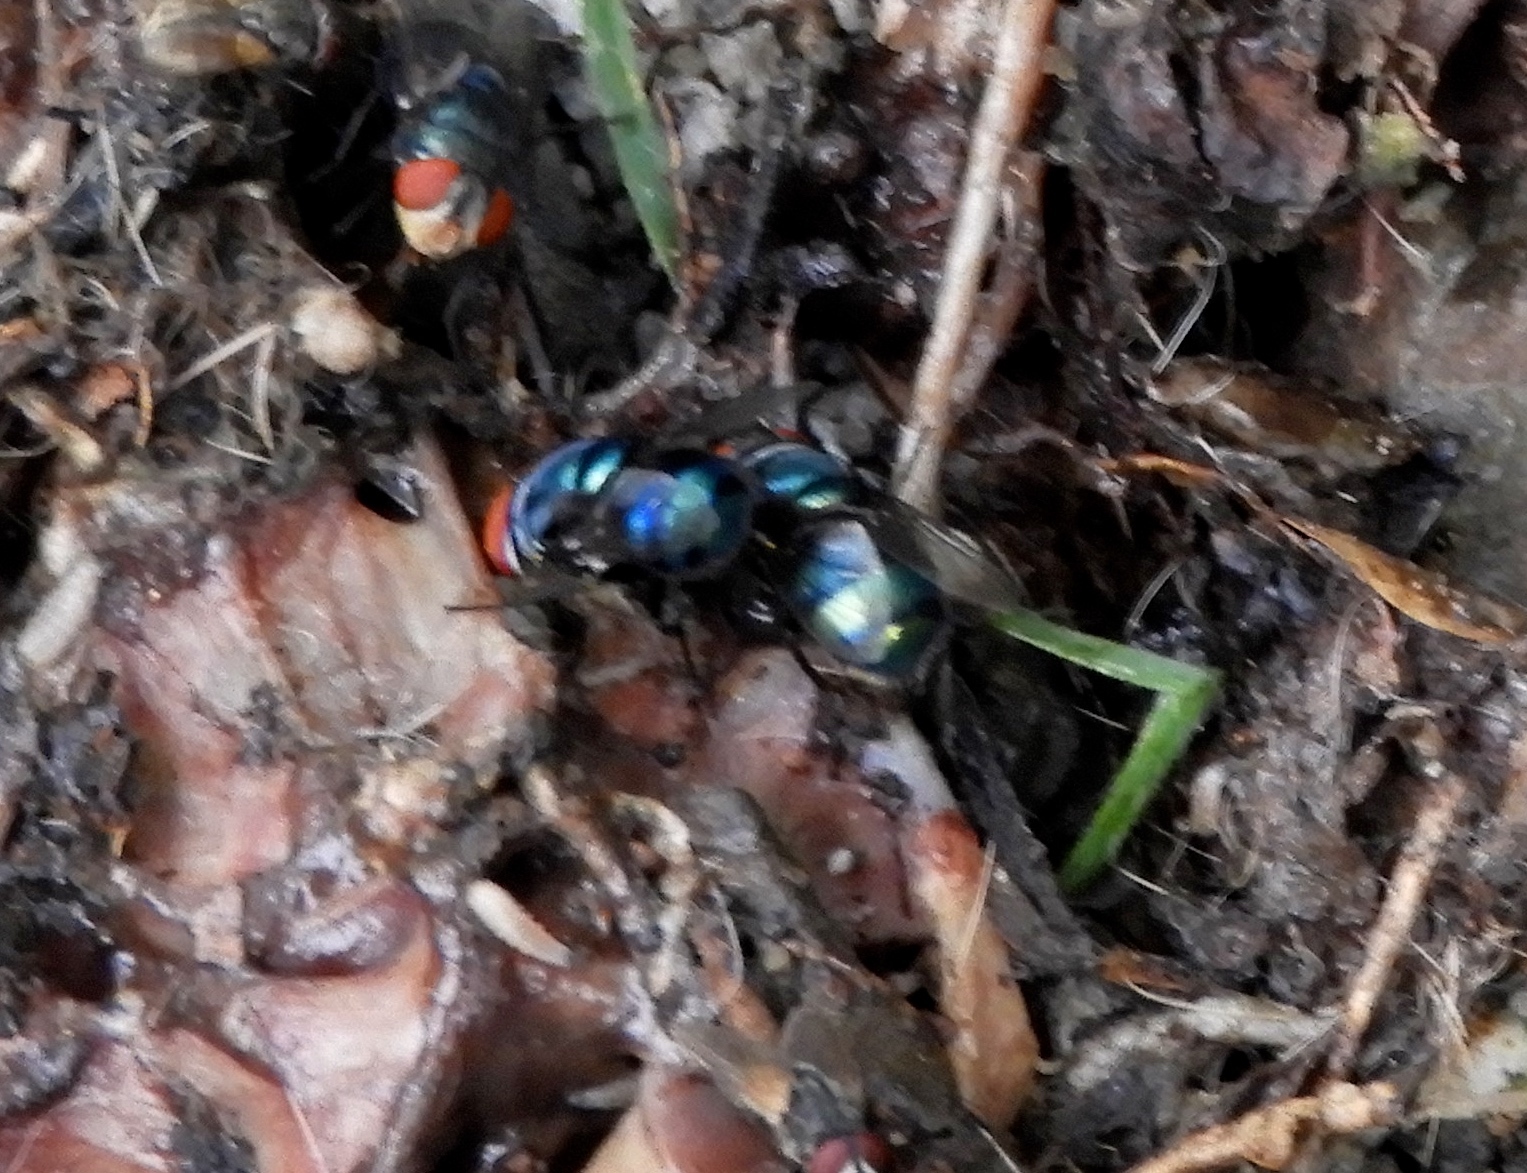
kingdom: Animalia
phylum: Arthropoda
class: Insecta
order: Diptera
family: Calliphoridae
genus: Chrysomya
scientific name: Chrysomya megacephala
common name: Blow fly
